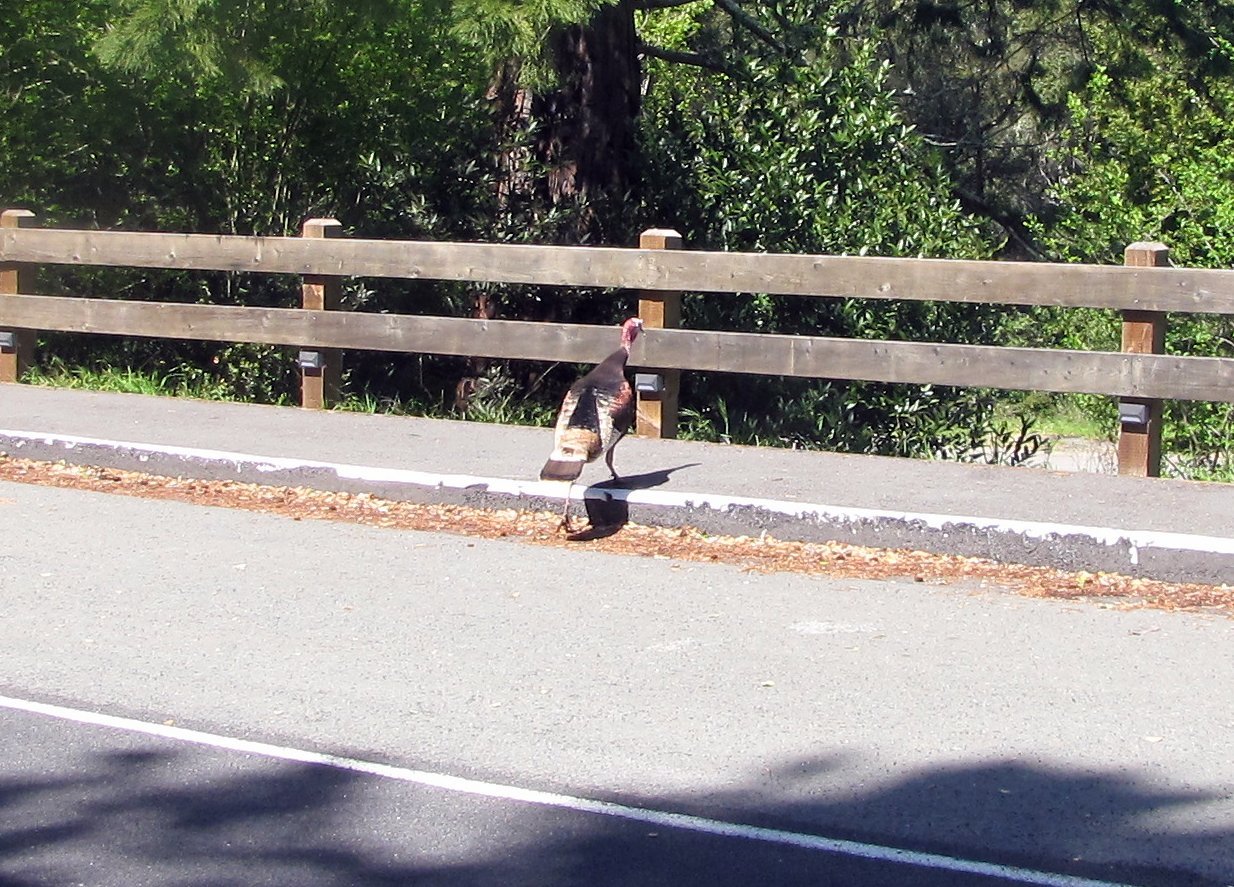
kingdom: Animalia
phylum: Chordata
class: Aves
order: Galliformes
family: Phasianidae
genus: Meleagris
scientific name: Meleagris gallopavo
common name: Wild turkey
